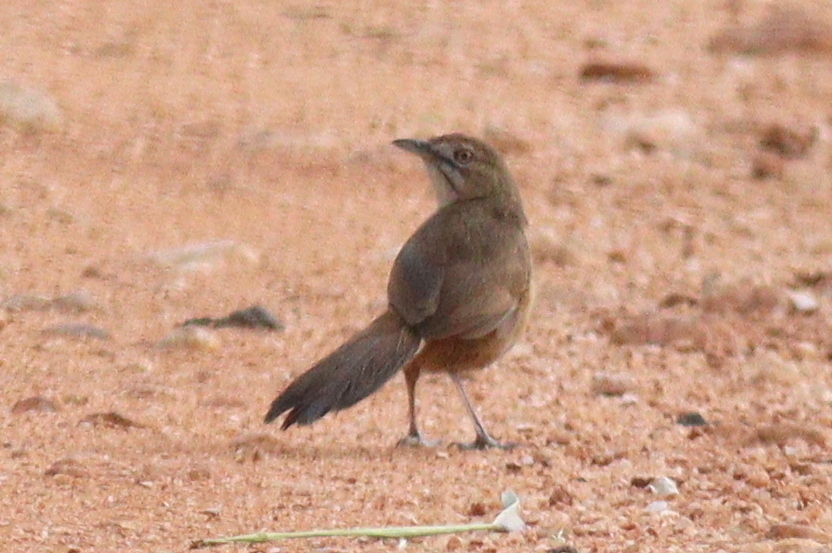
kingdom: Animalia
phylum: Chordata
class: Aves
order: Passeriformes
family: Macrosphenidae
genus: Melocichla
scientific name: Melocichla mentalis
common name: Moustached grass warbler
